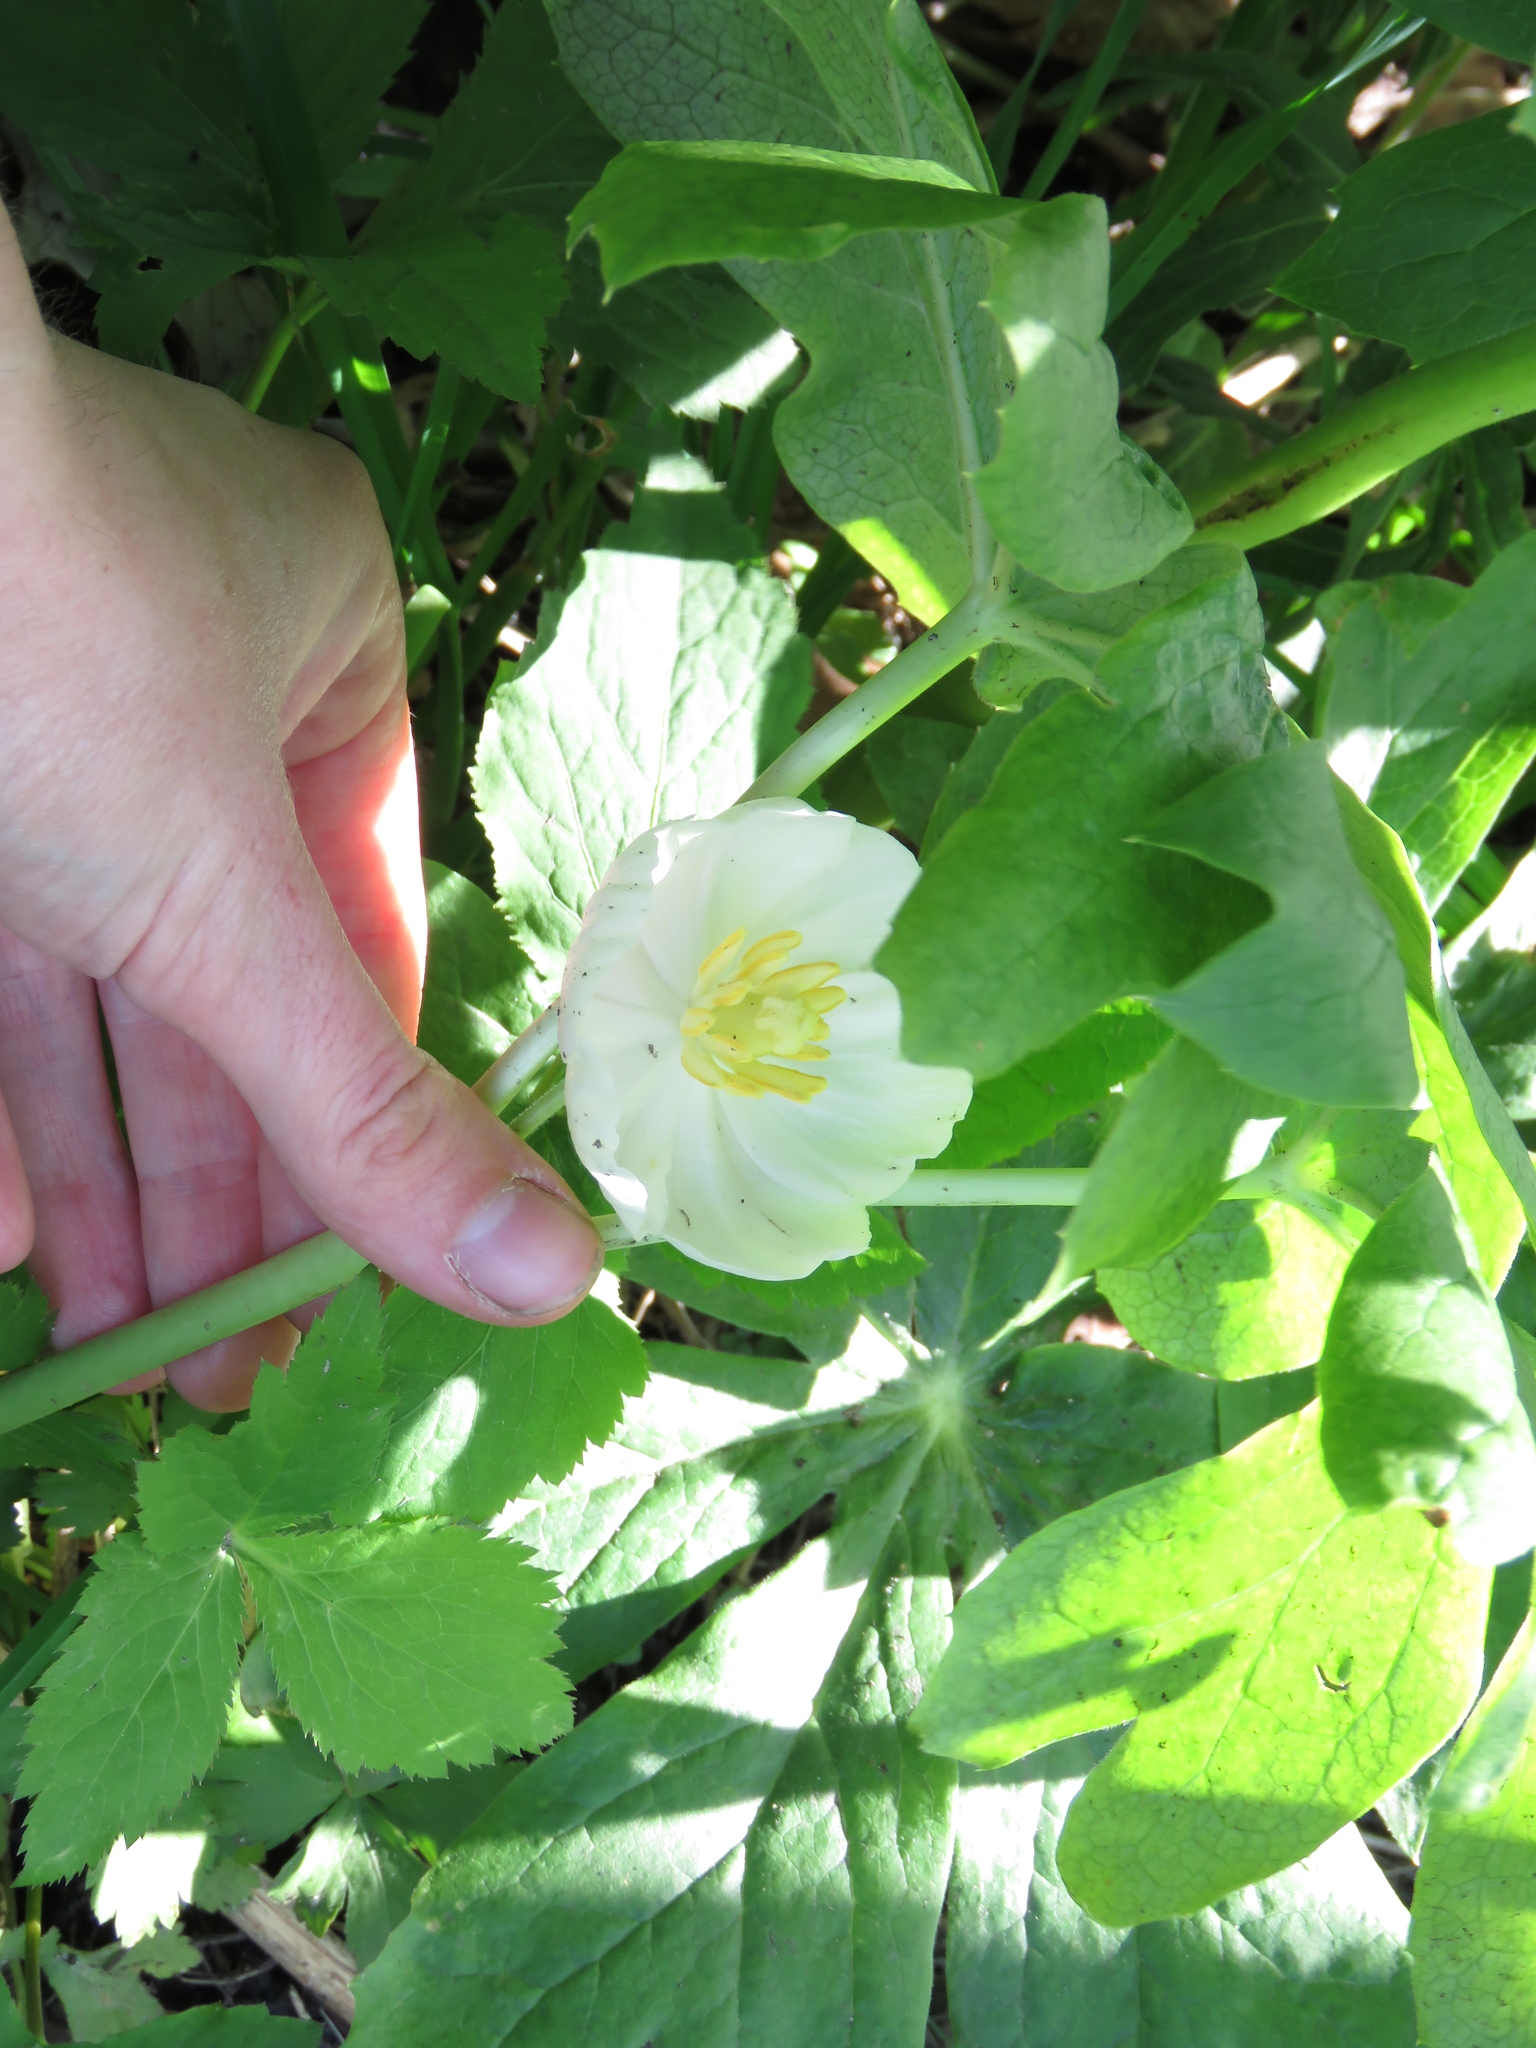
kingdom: Plantae
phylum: Tracheophyta
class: Magnoliopsida
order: Ranunculales
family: Berberidaceae
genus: Podophyllum
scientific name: Podophyllum peltatum
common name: Wild mandrake
